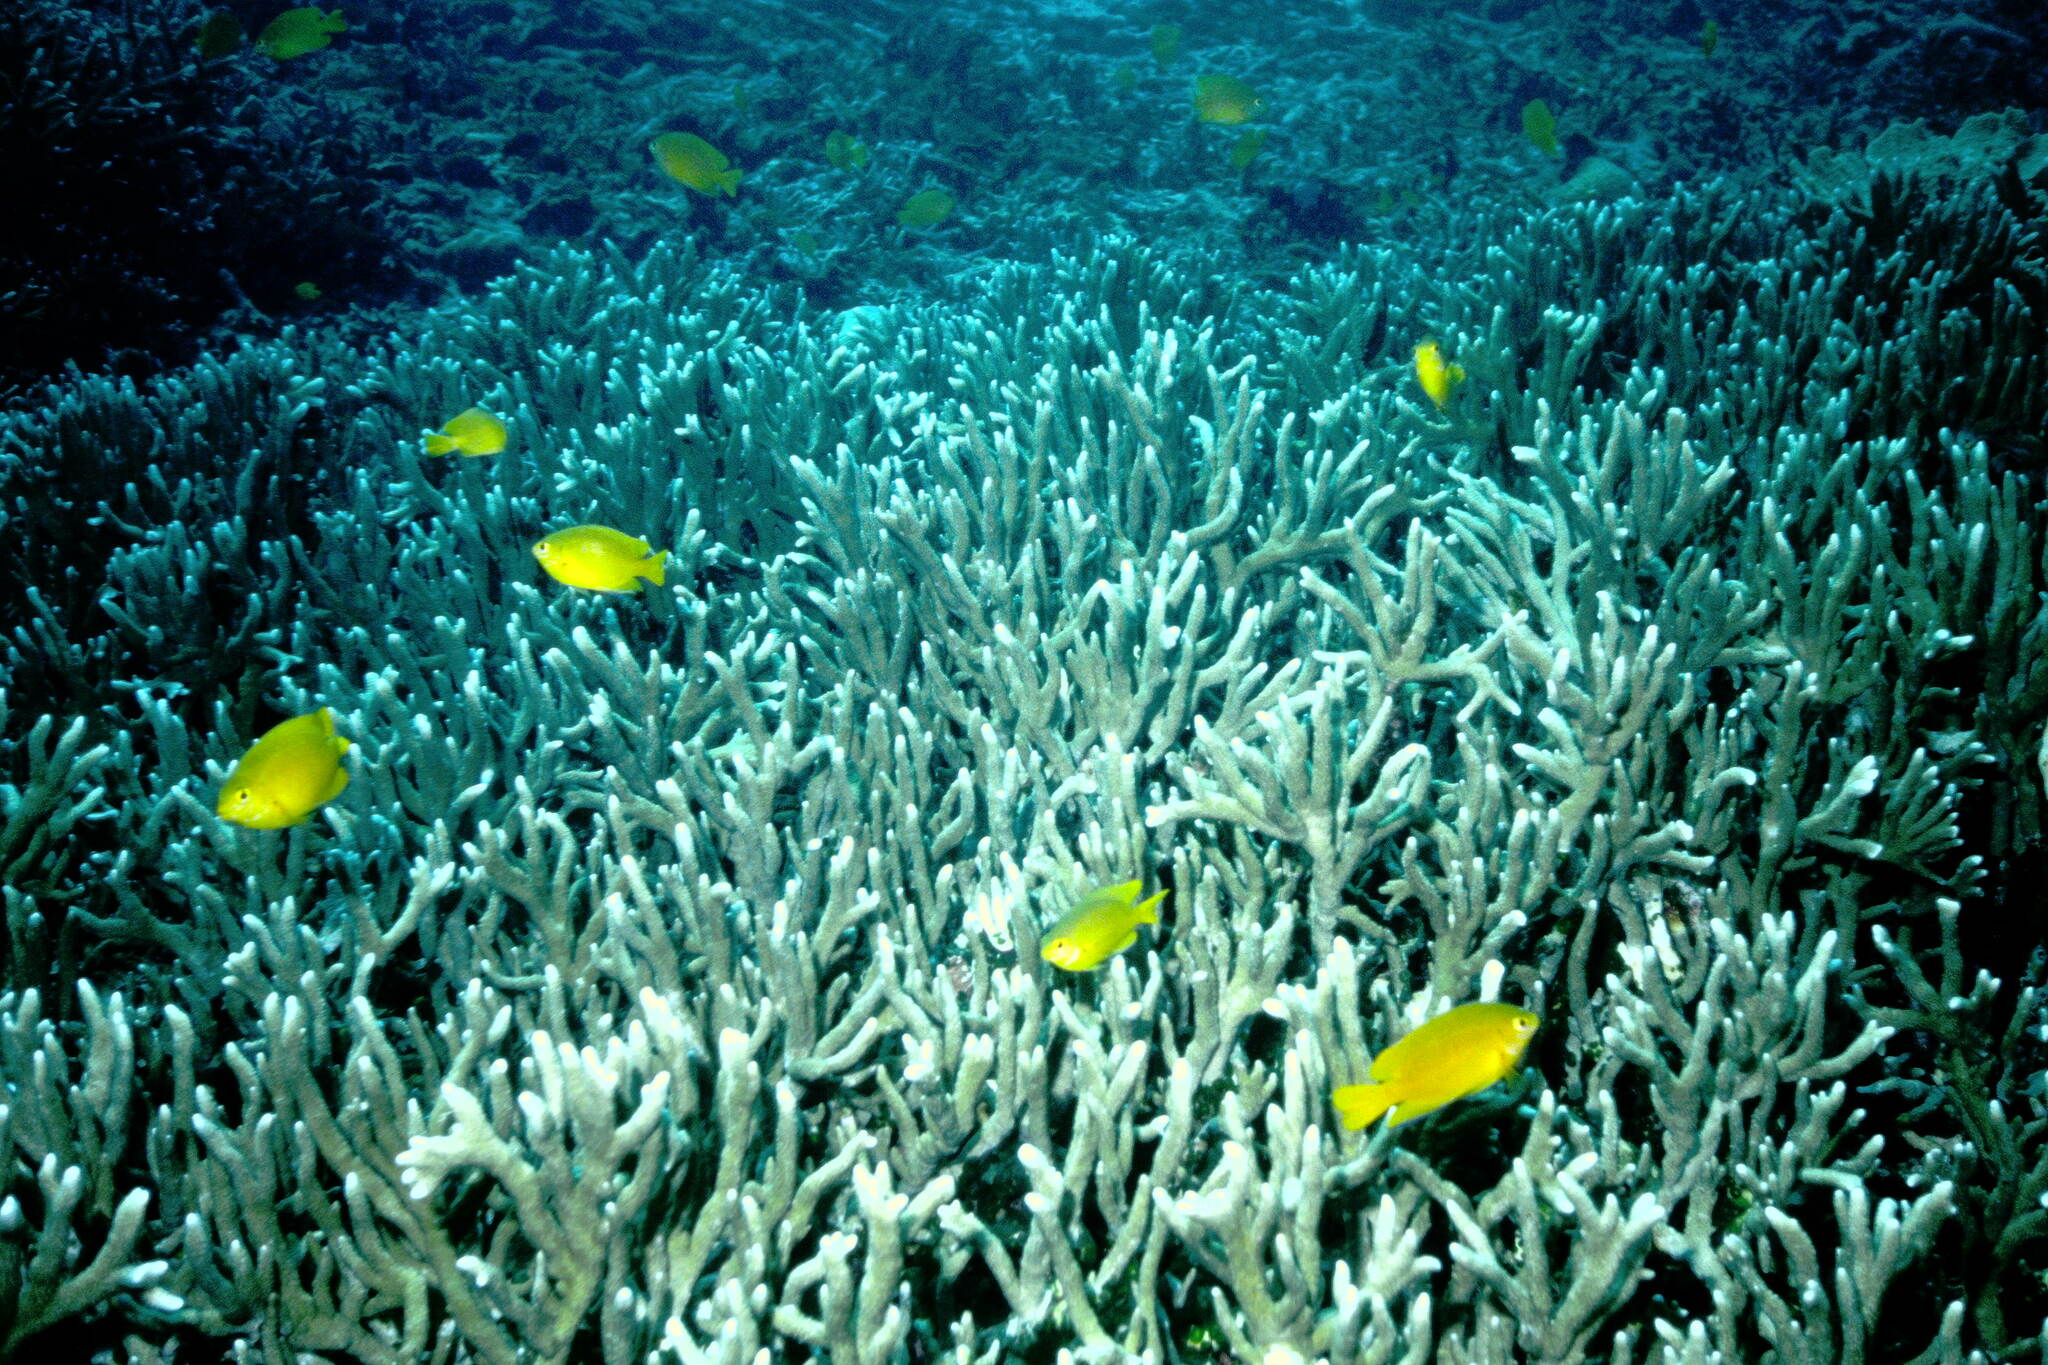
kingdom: Animalia
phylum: Chordata
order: Perciformes
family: Pomacentridae
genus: Pomacentrus
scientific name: Pomacentrus moluccensis
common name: Lemon damsel
